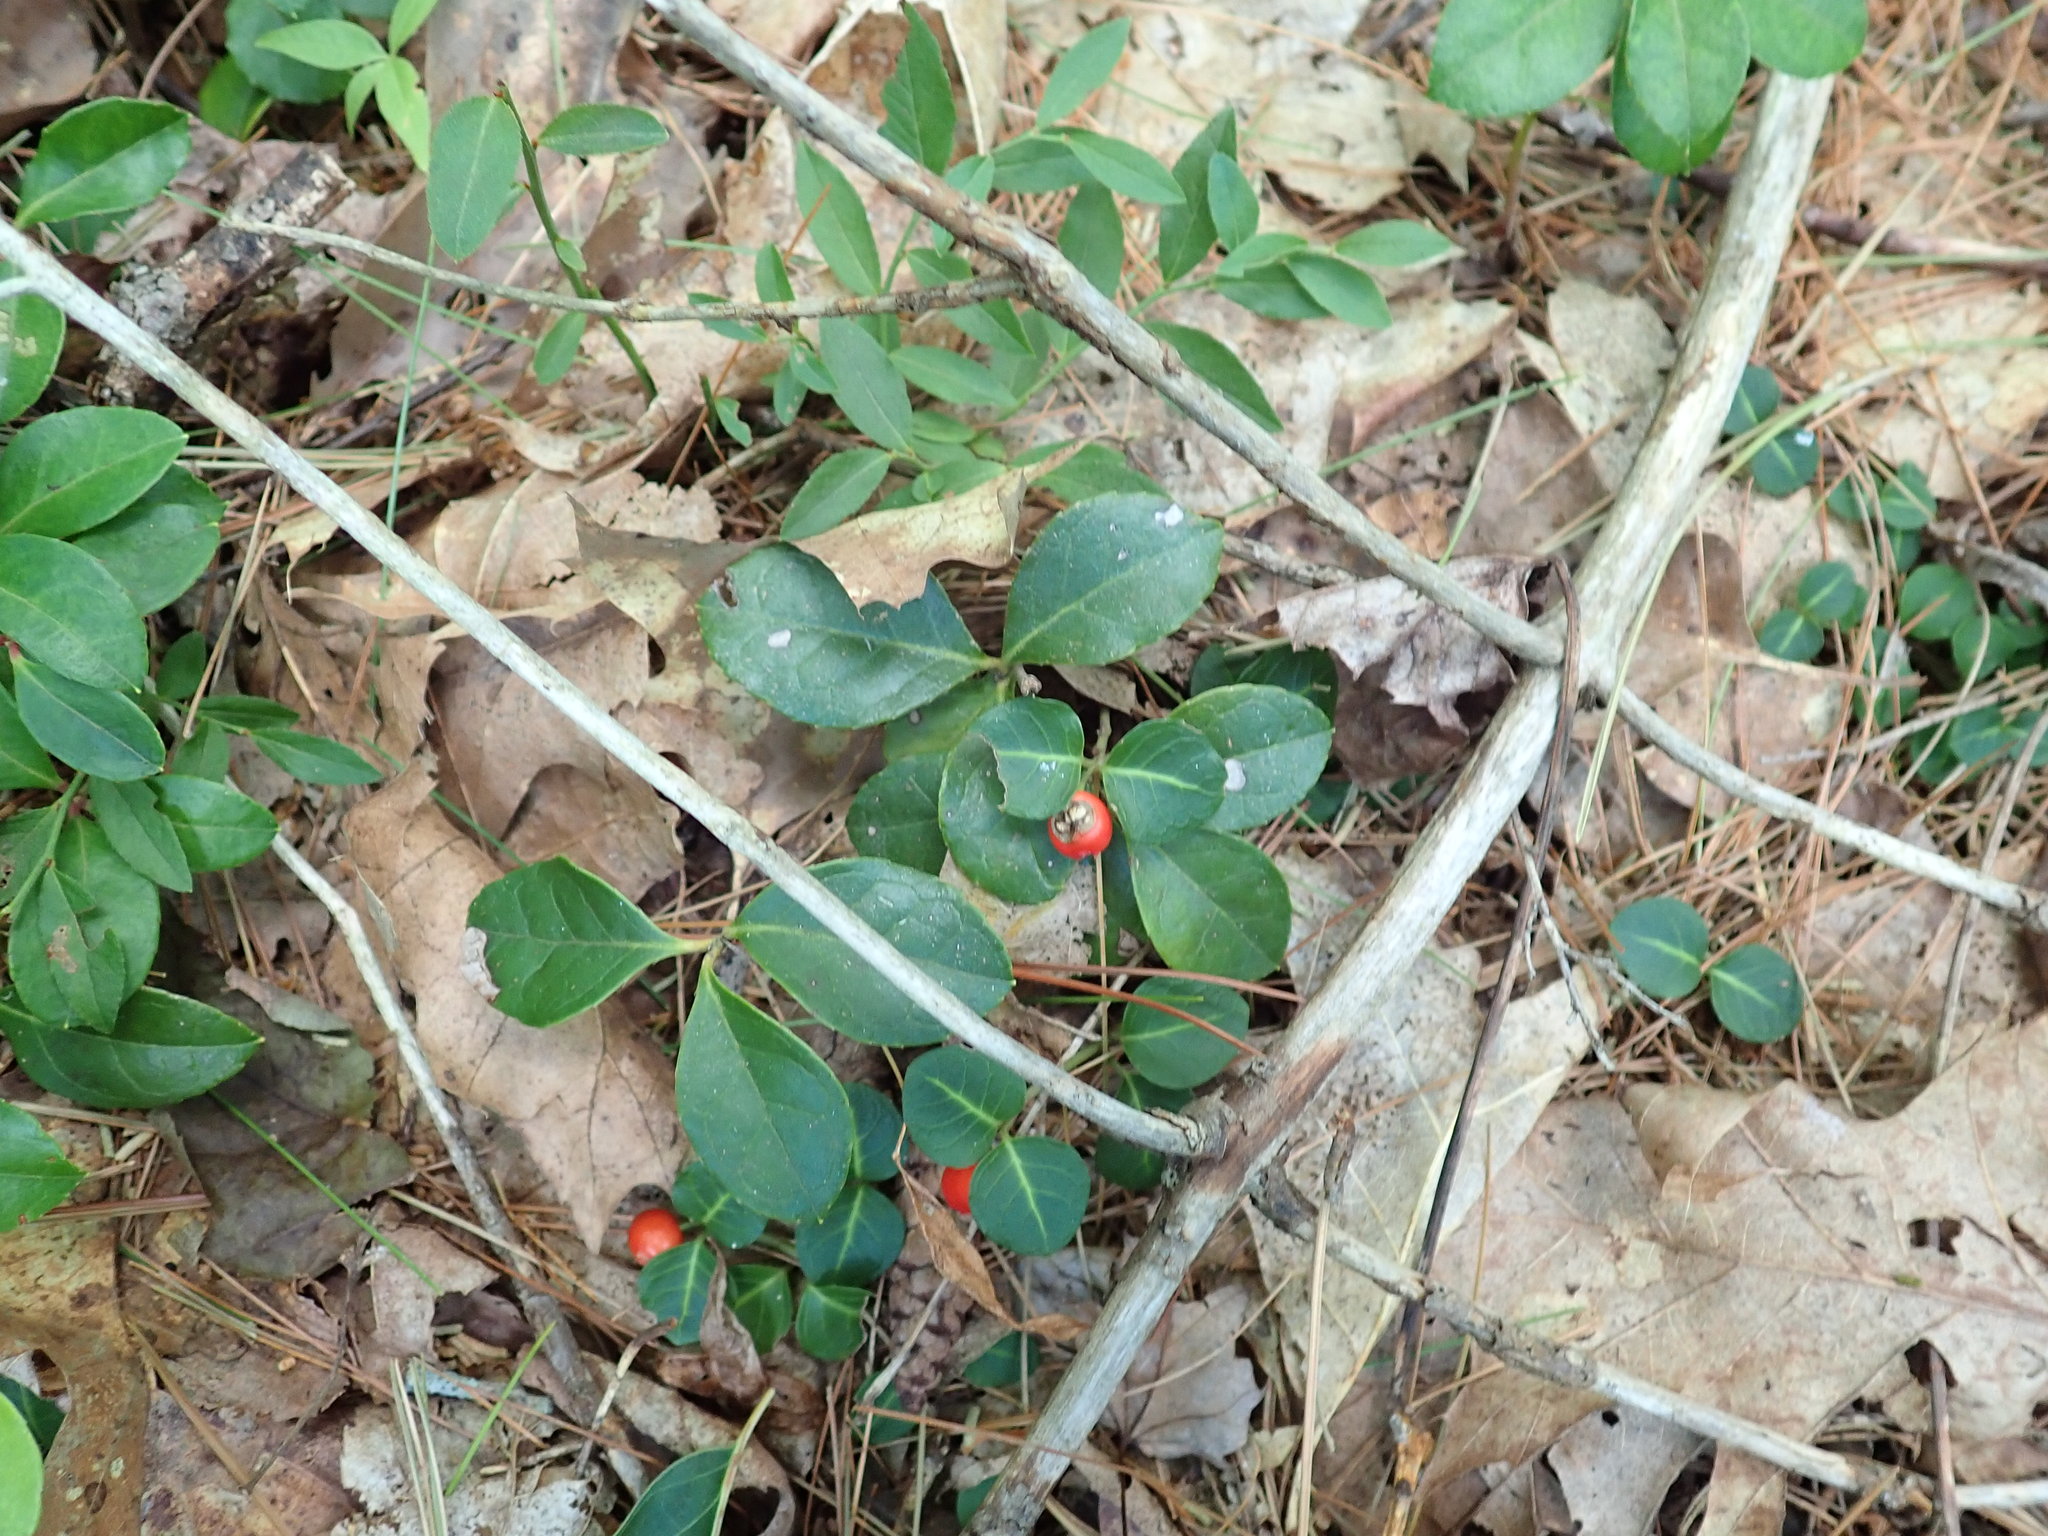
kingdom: Plantae
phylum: Tracheophyta
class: Magnoliopsida
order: Ericales
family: Ericaceae
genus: Gaultheria
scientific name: Gaultheria procumbens
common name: Checkerberry
